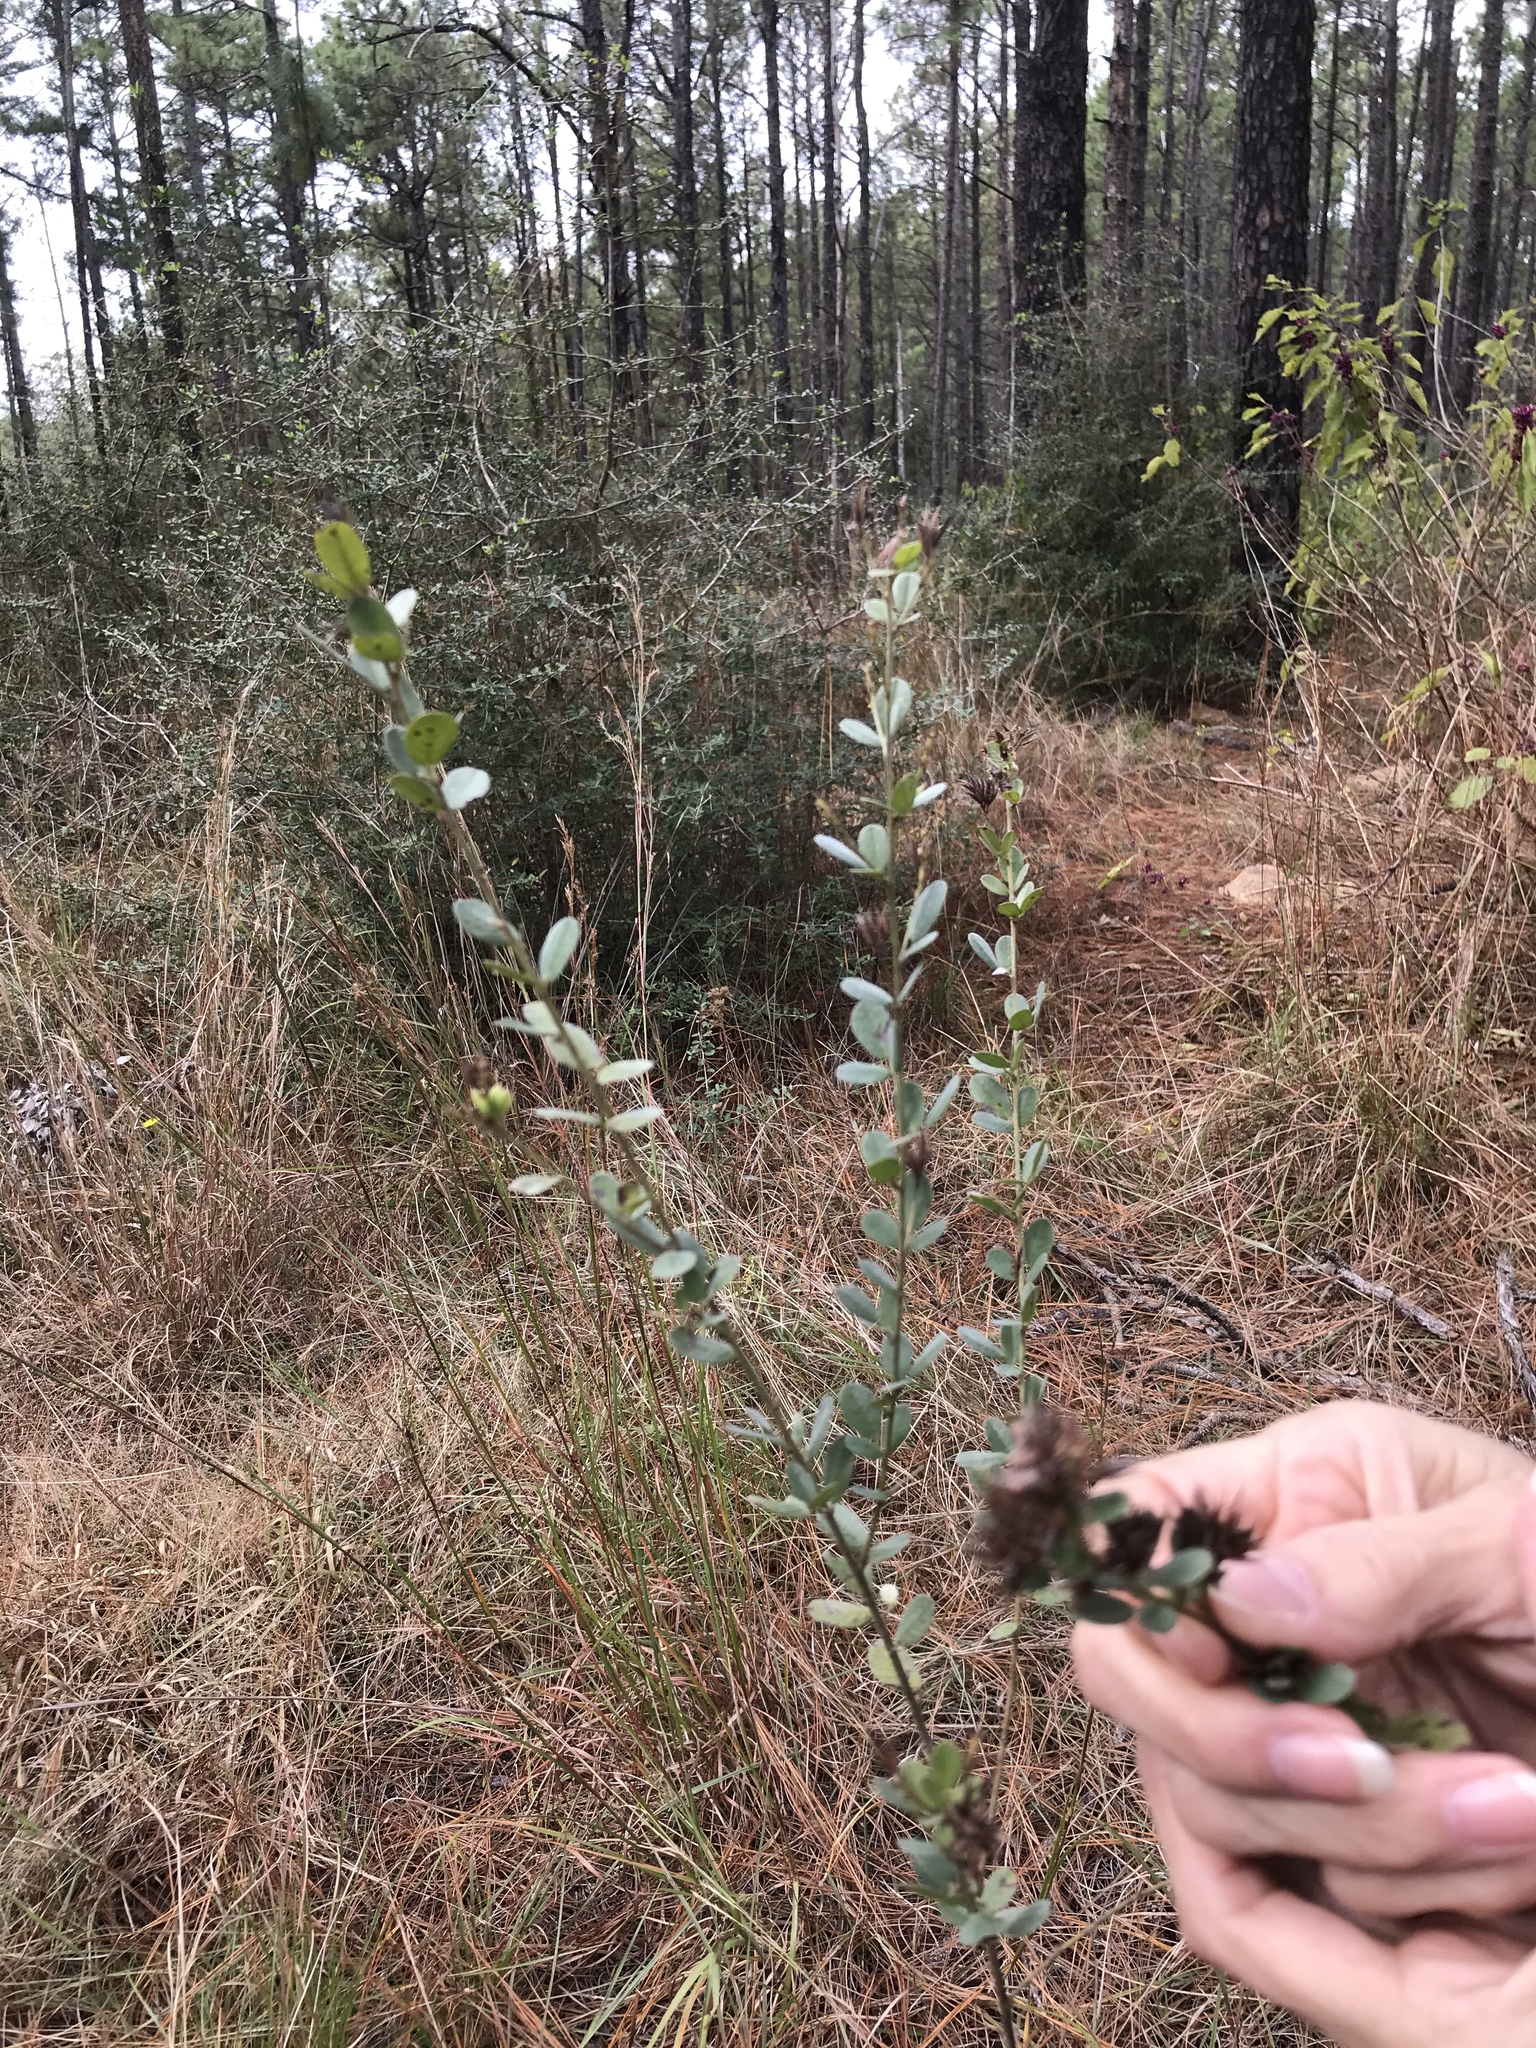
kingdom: Plantae
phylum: Tracheophyta
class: Magnoliopsida
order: Fabales
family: Fabaceae
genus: Lespedeza
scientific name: Lespedeza hirta
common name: Hairy lespedeza
